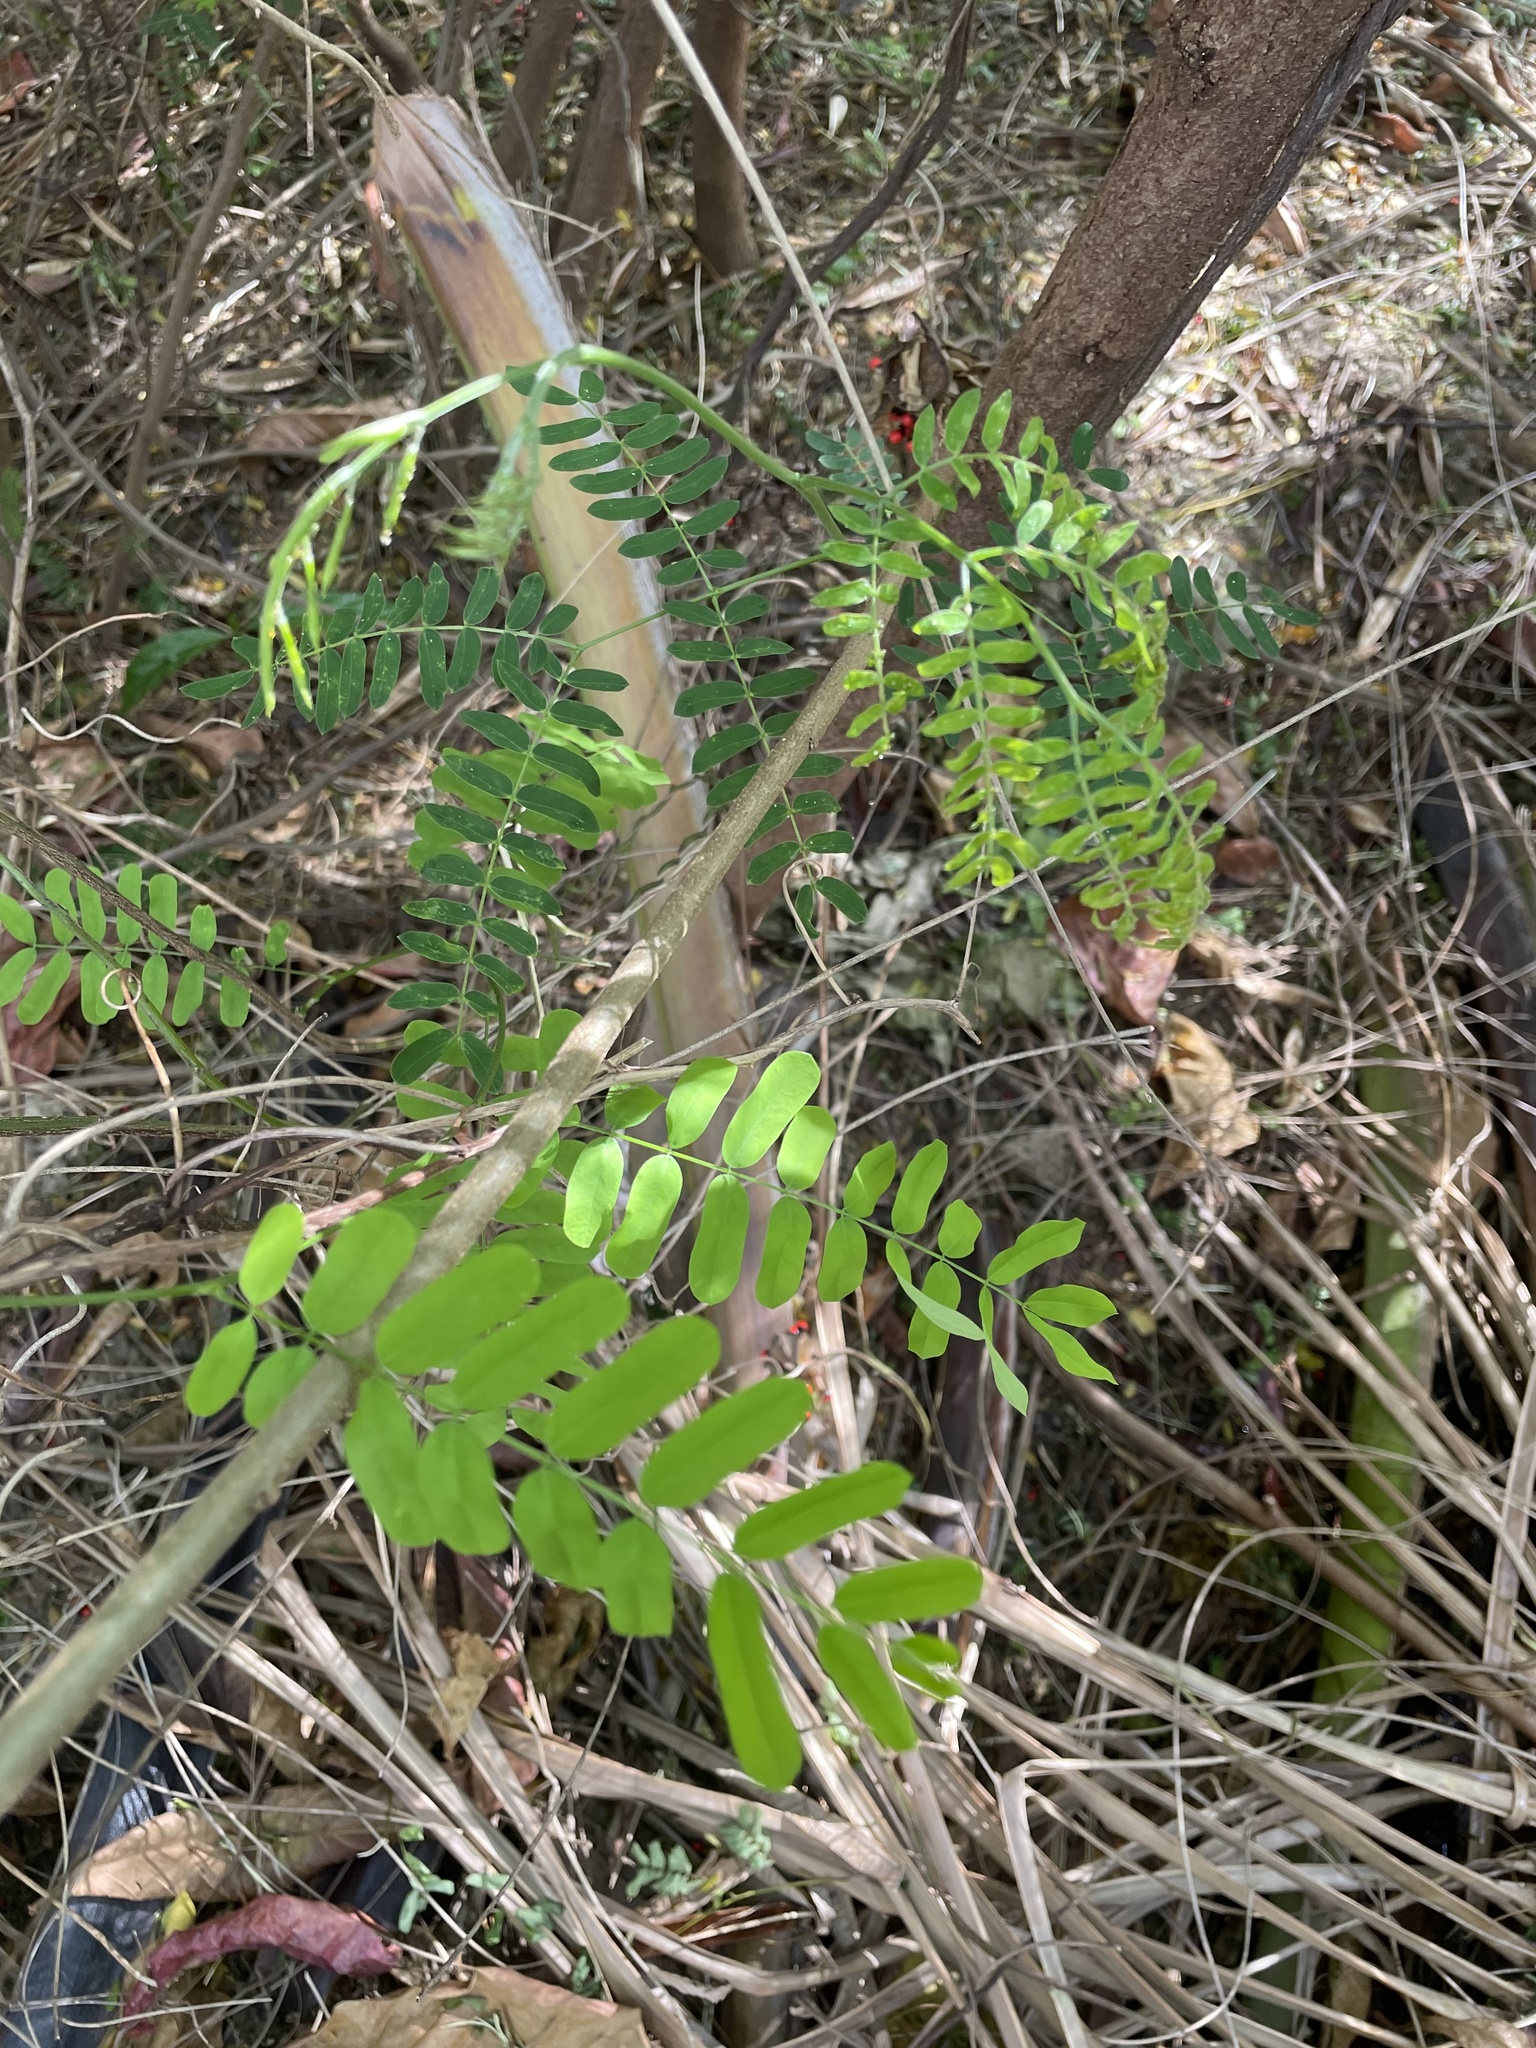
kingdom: Plantae
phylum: Tracheophyta
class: Magnoliopsida
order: Fabales
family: Fabaceae
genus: Abrus
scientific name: Abrus precatorius
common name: Rosarypea
